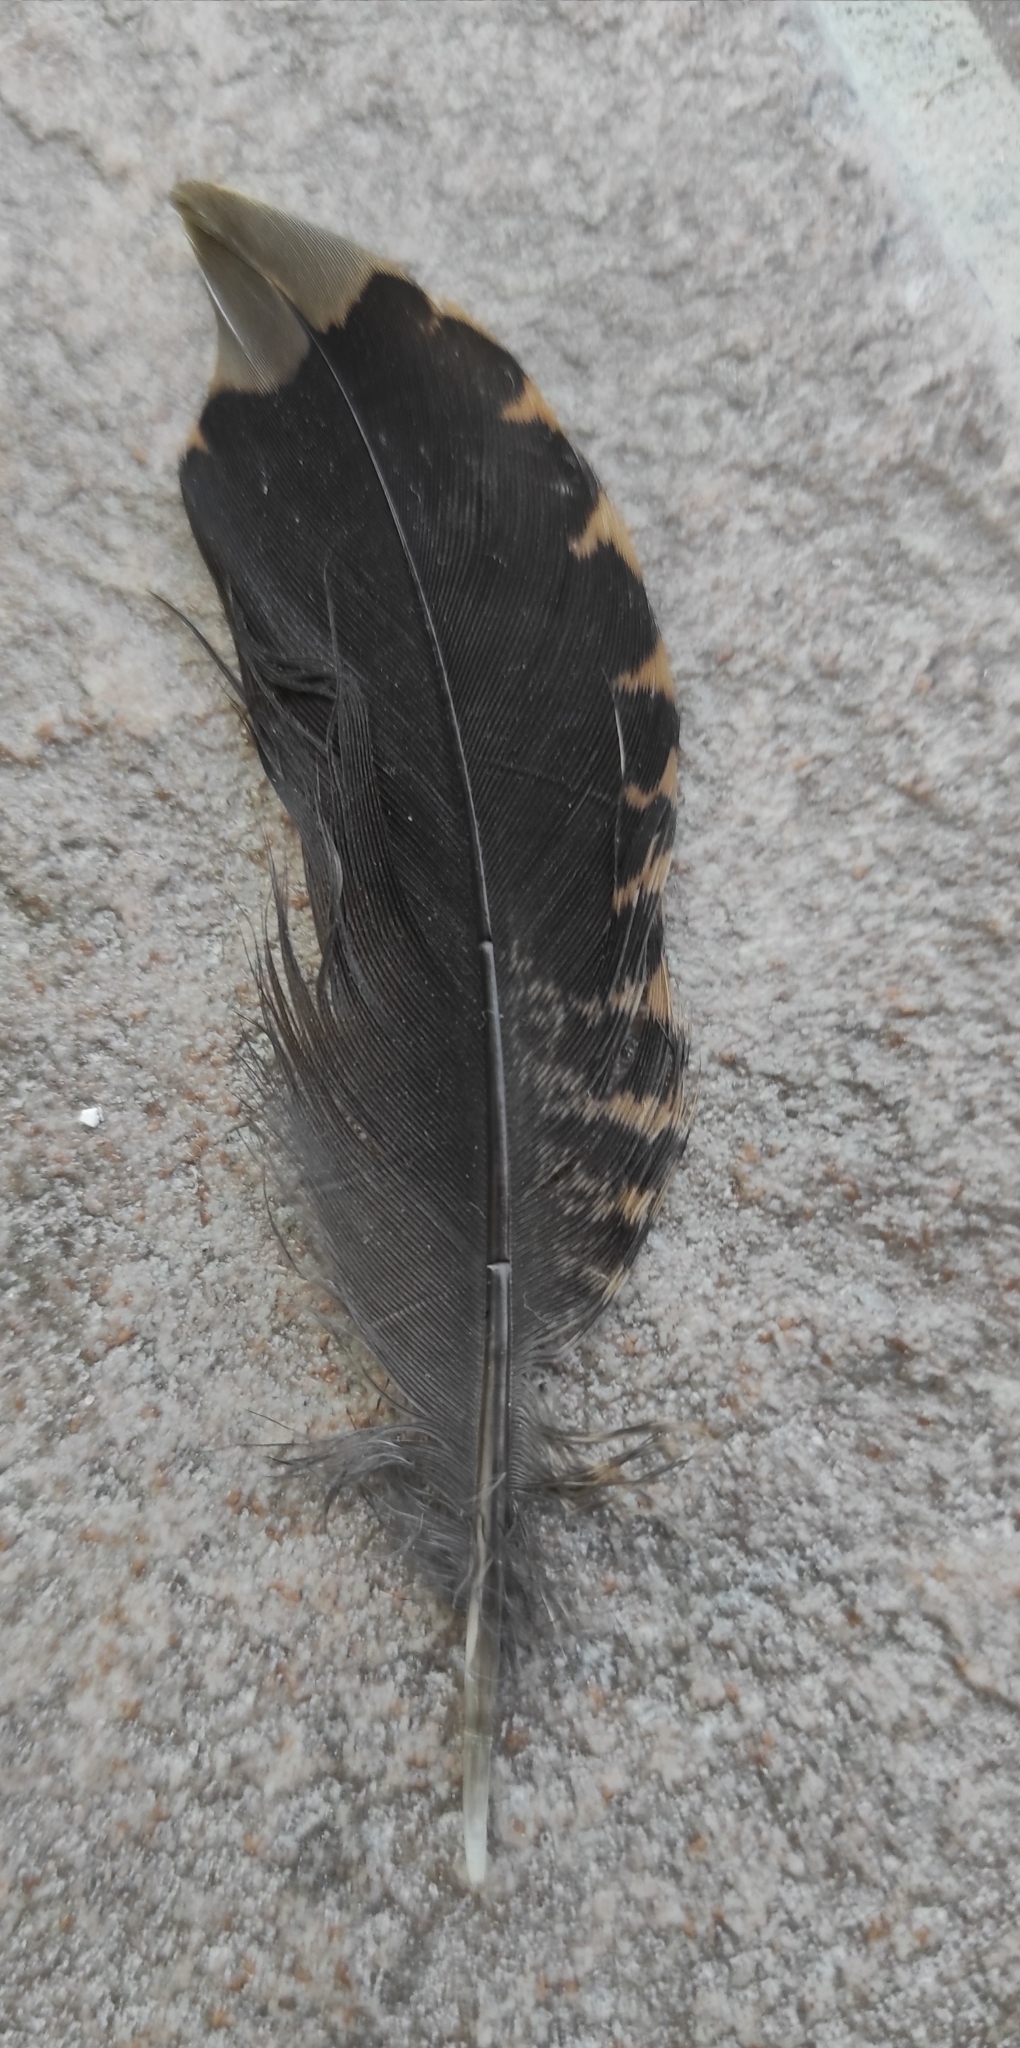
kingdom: Animalia
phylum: Chordata
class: Aves
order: Charadriiformes
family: Scolopacidae
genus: Scolopax
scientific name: Scolopax rusticola
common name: Eurasian woodcock
